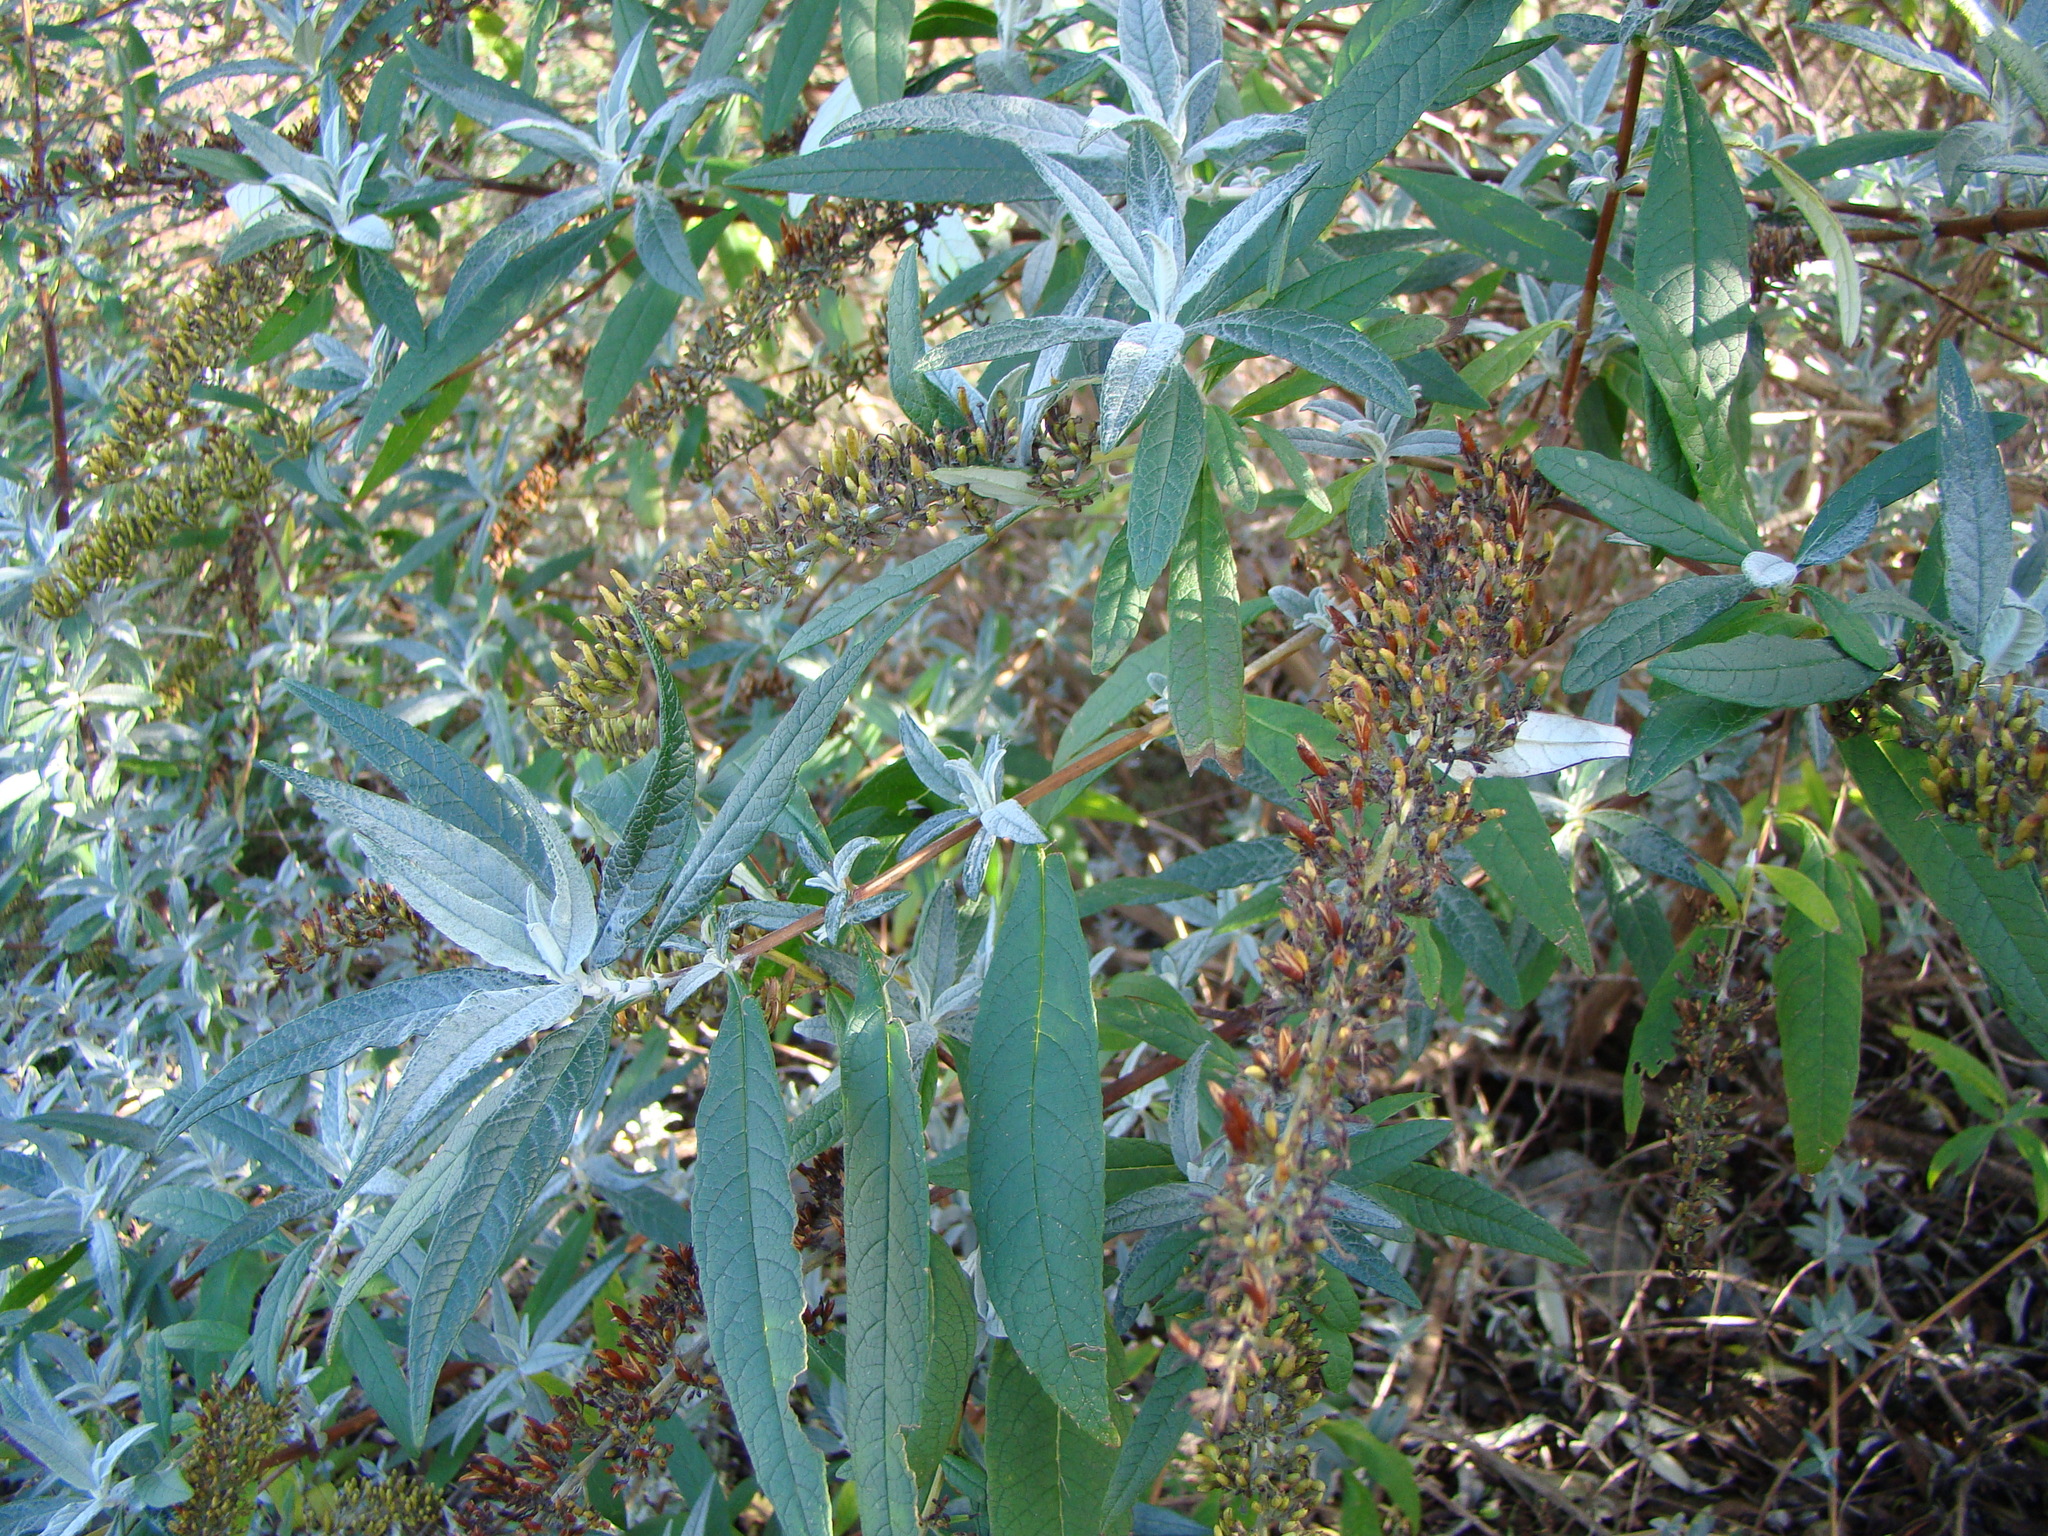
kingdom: Plantae
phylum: Tracheophyta
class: Magnoliopsida
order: Lamiales
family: Scrophulariaceae
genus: Buddleja
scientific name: Buddleja davidii
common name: Butterfly-bush
